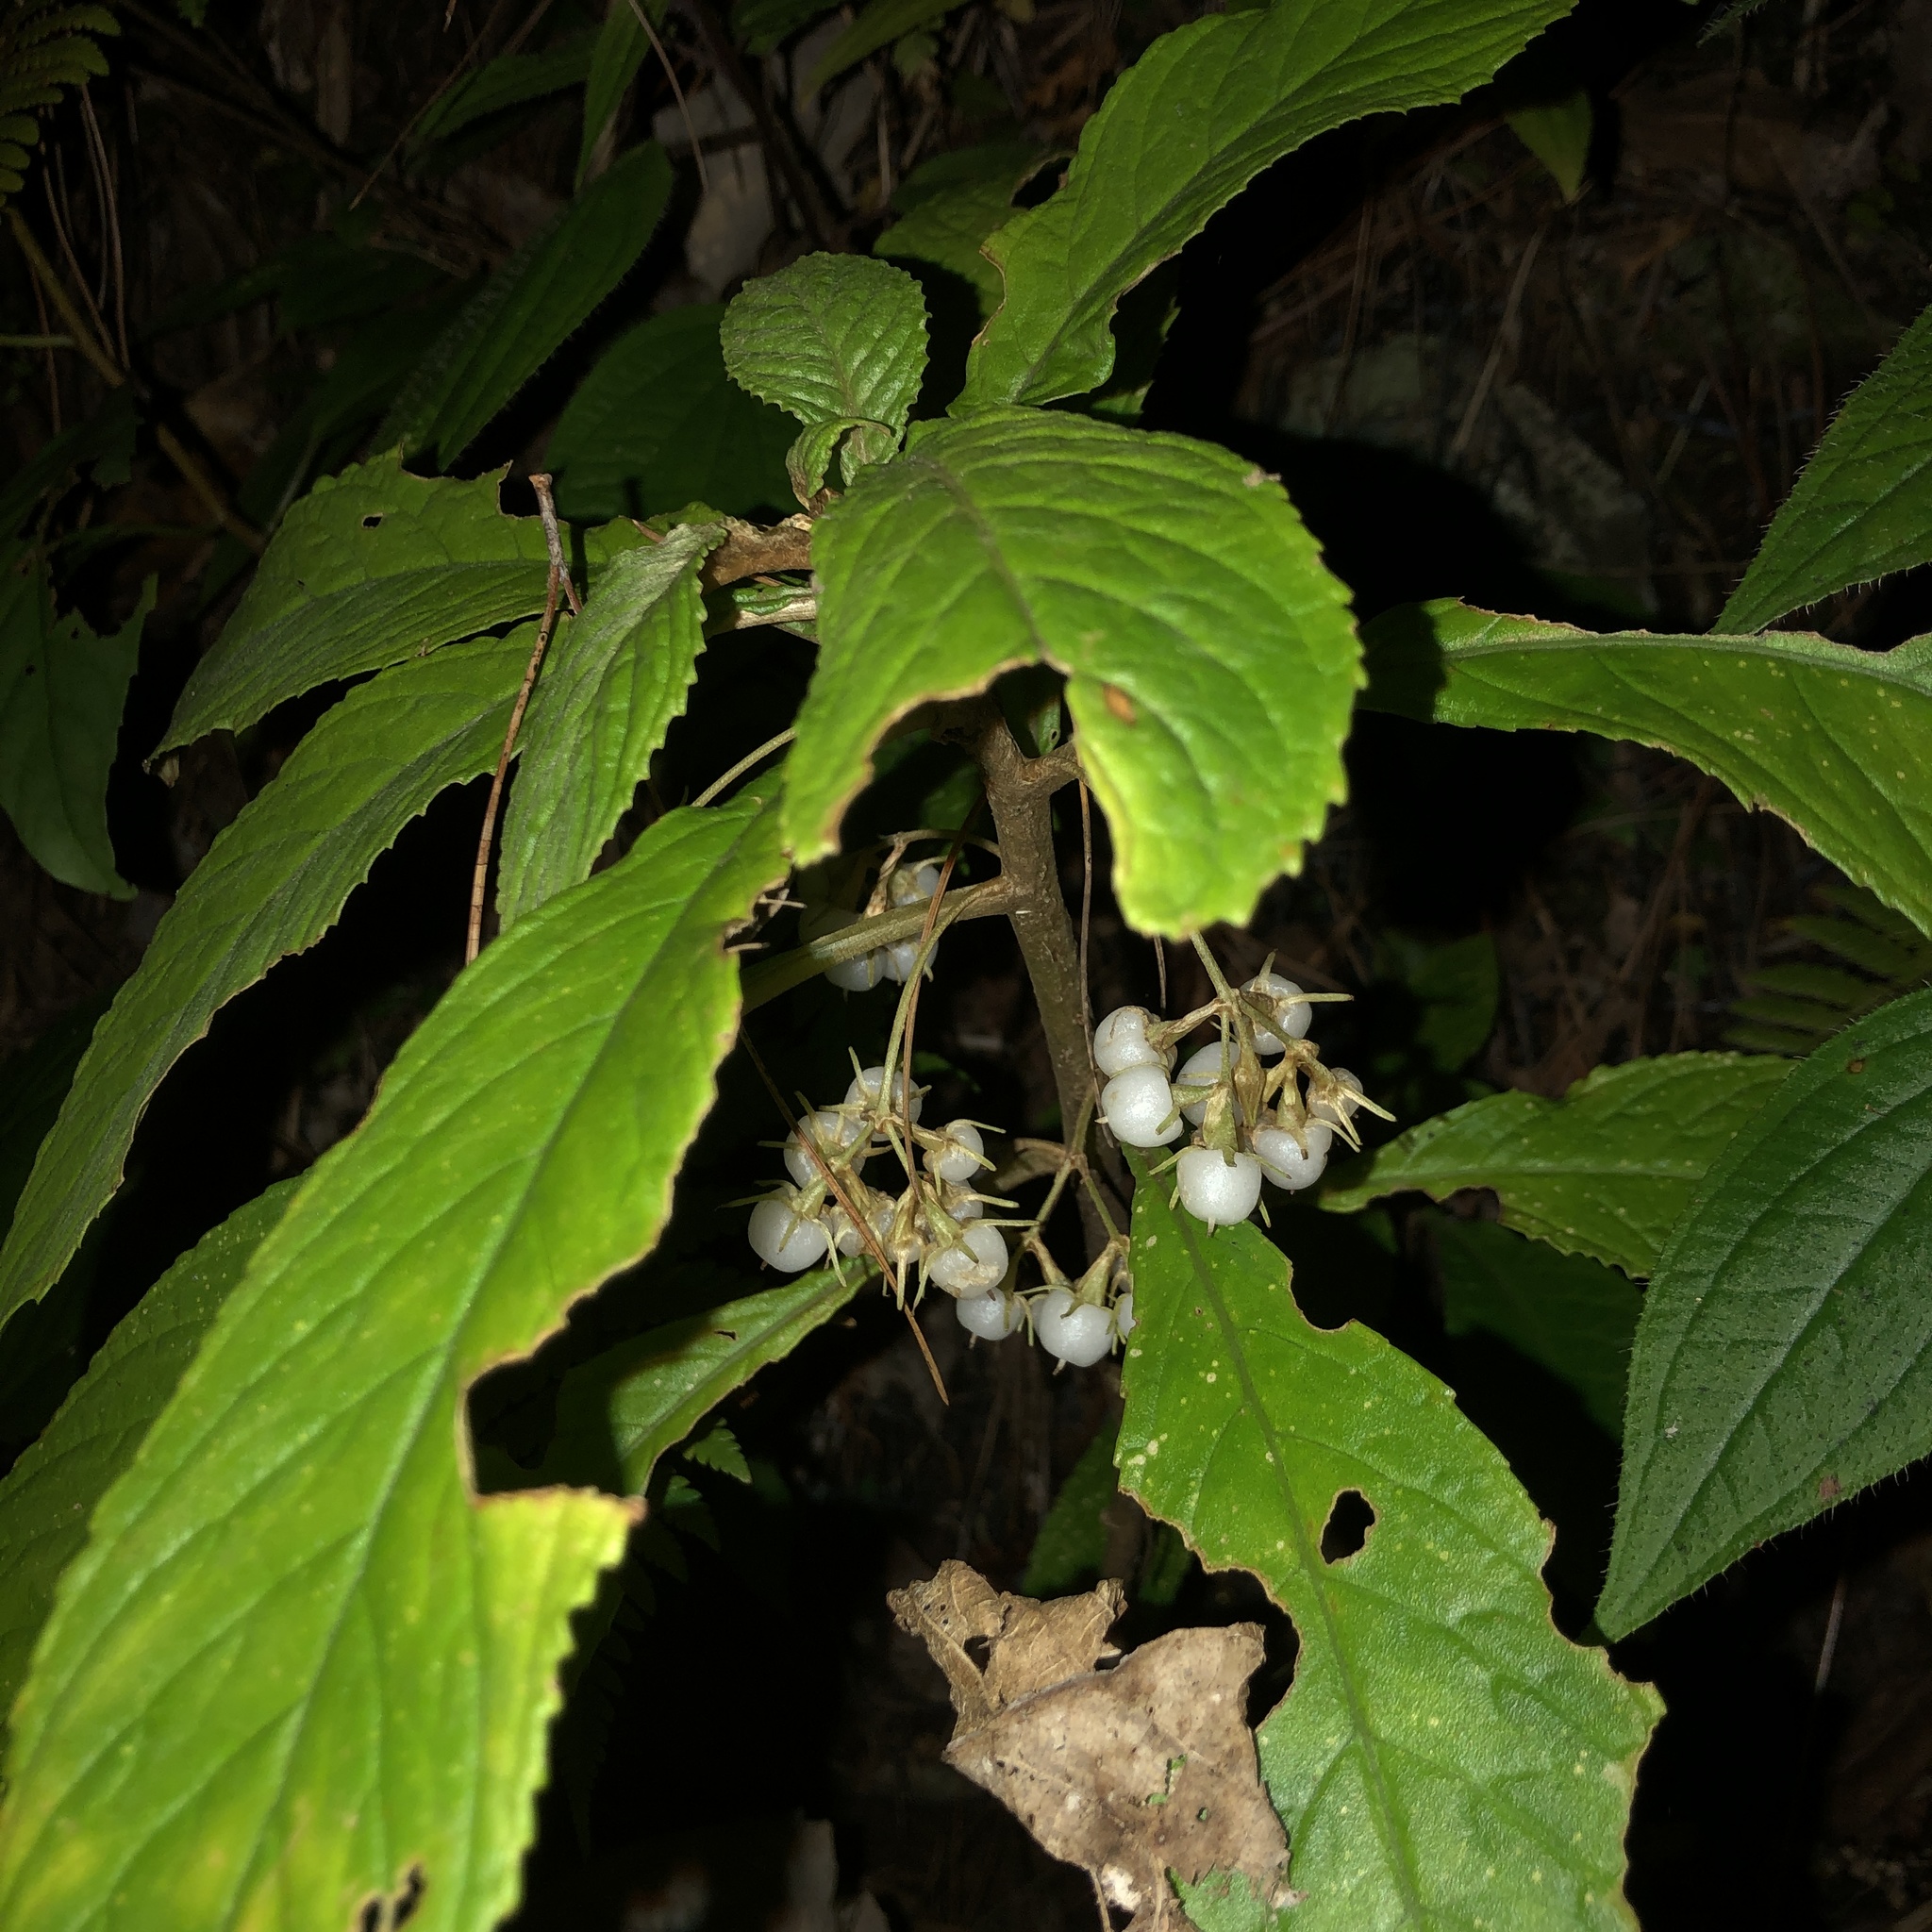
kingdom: Plantae
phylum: Tracheophyta
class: Magnoliopsida
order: Lamiales
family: Gesneriaceae
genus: Rhynchotechum
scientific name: Rhynchotechum discolor
